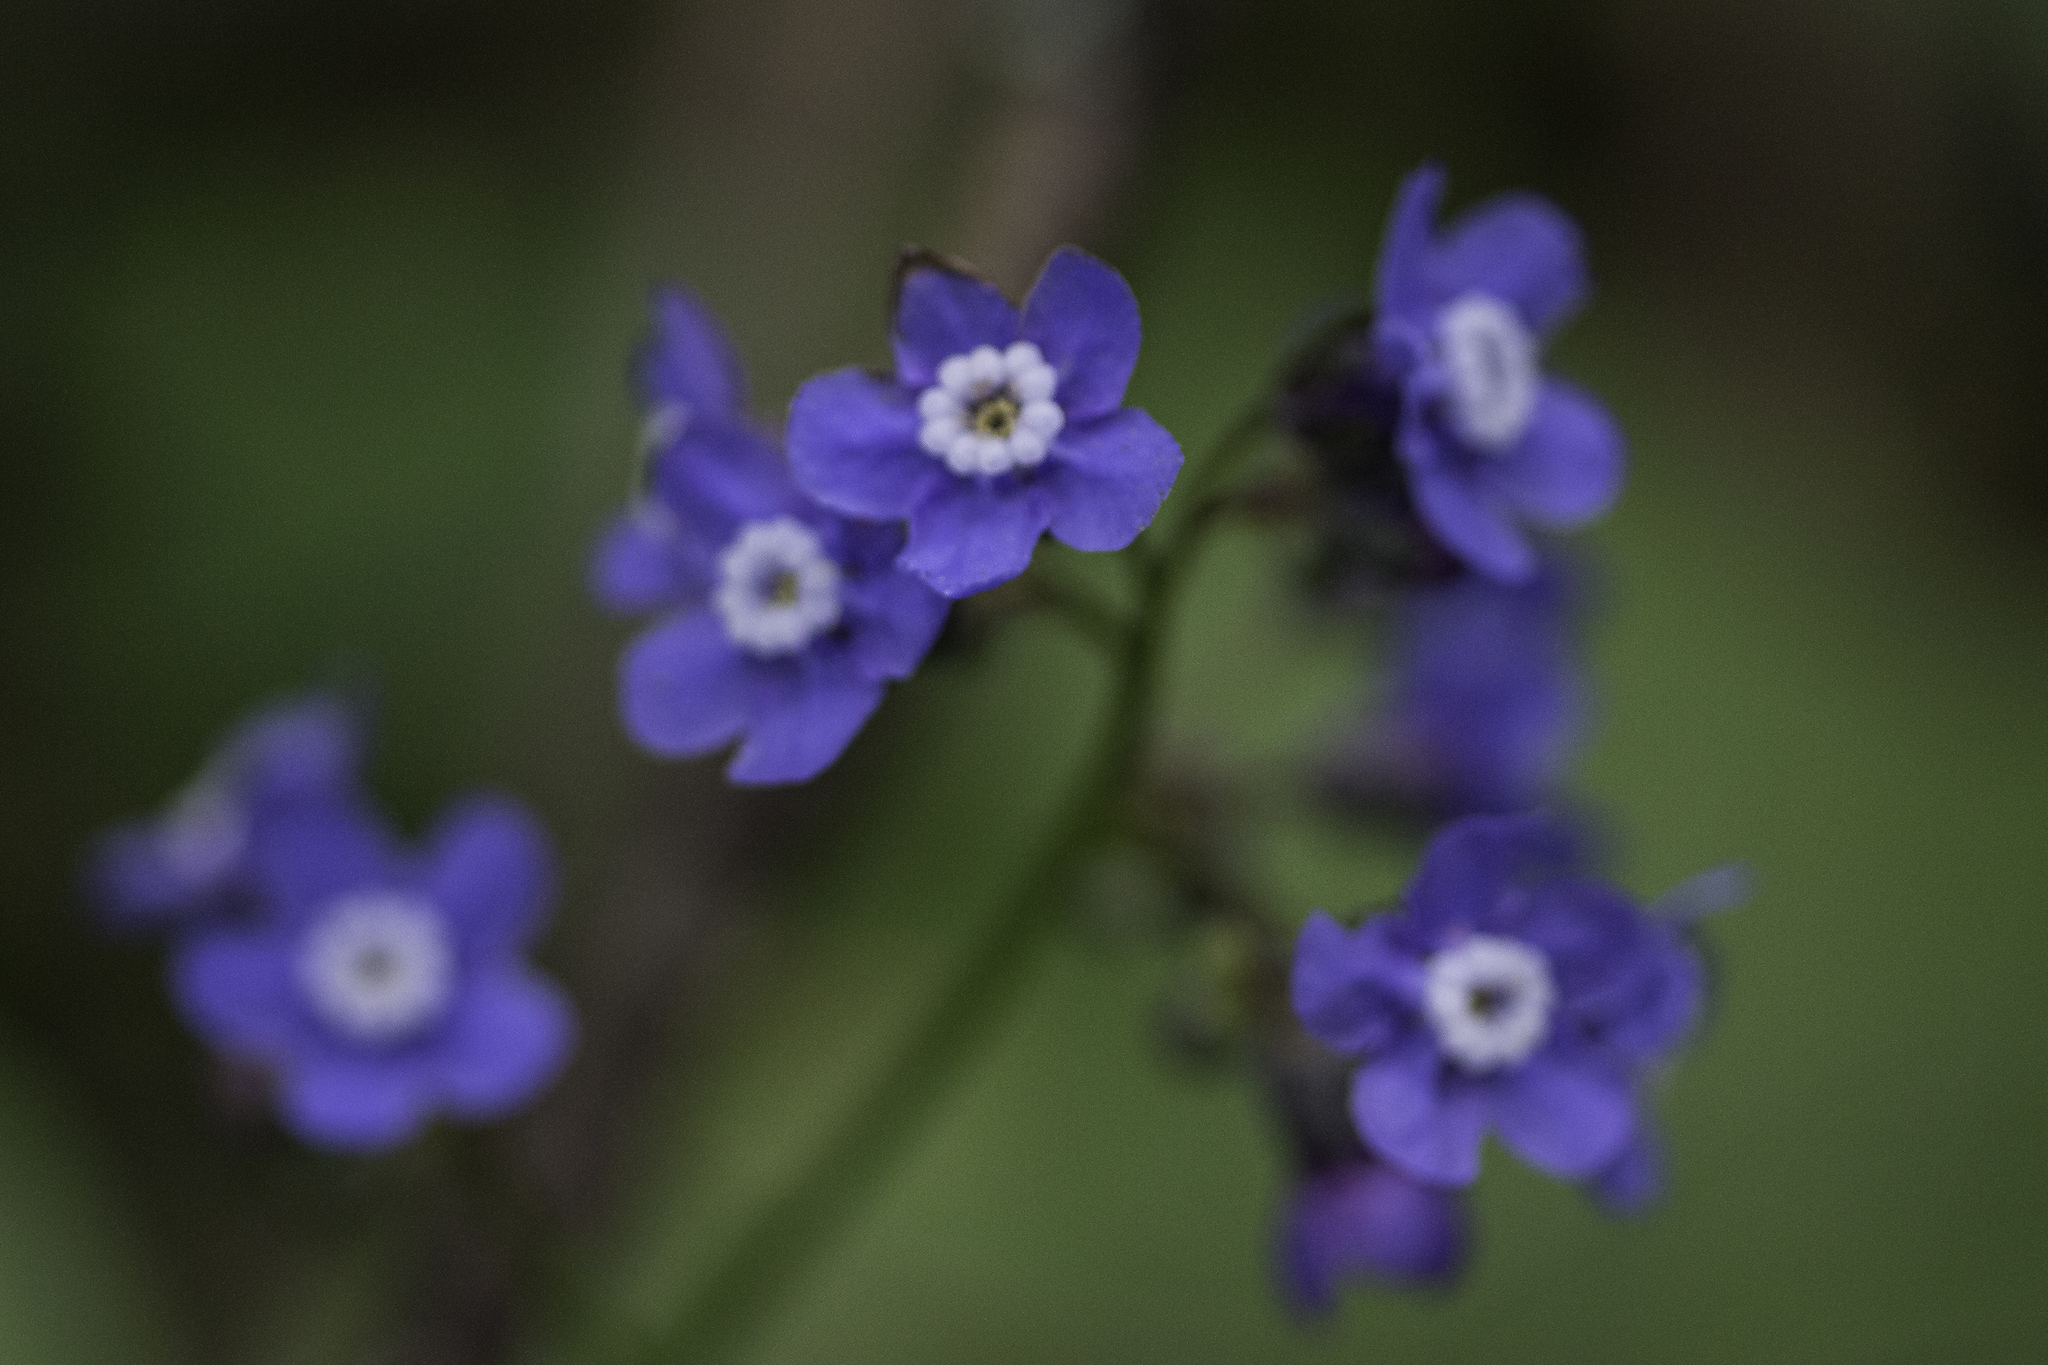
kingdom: Plantae
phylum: Tracheophyta
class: Magnoliopsida
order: Boraginales
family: Boraginaceae
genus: Adelinia
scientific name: Adelinia grande
